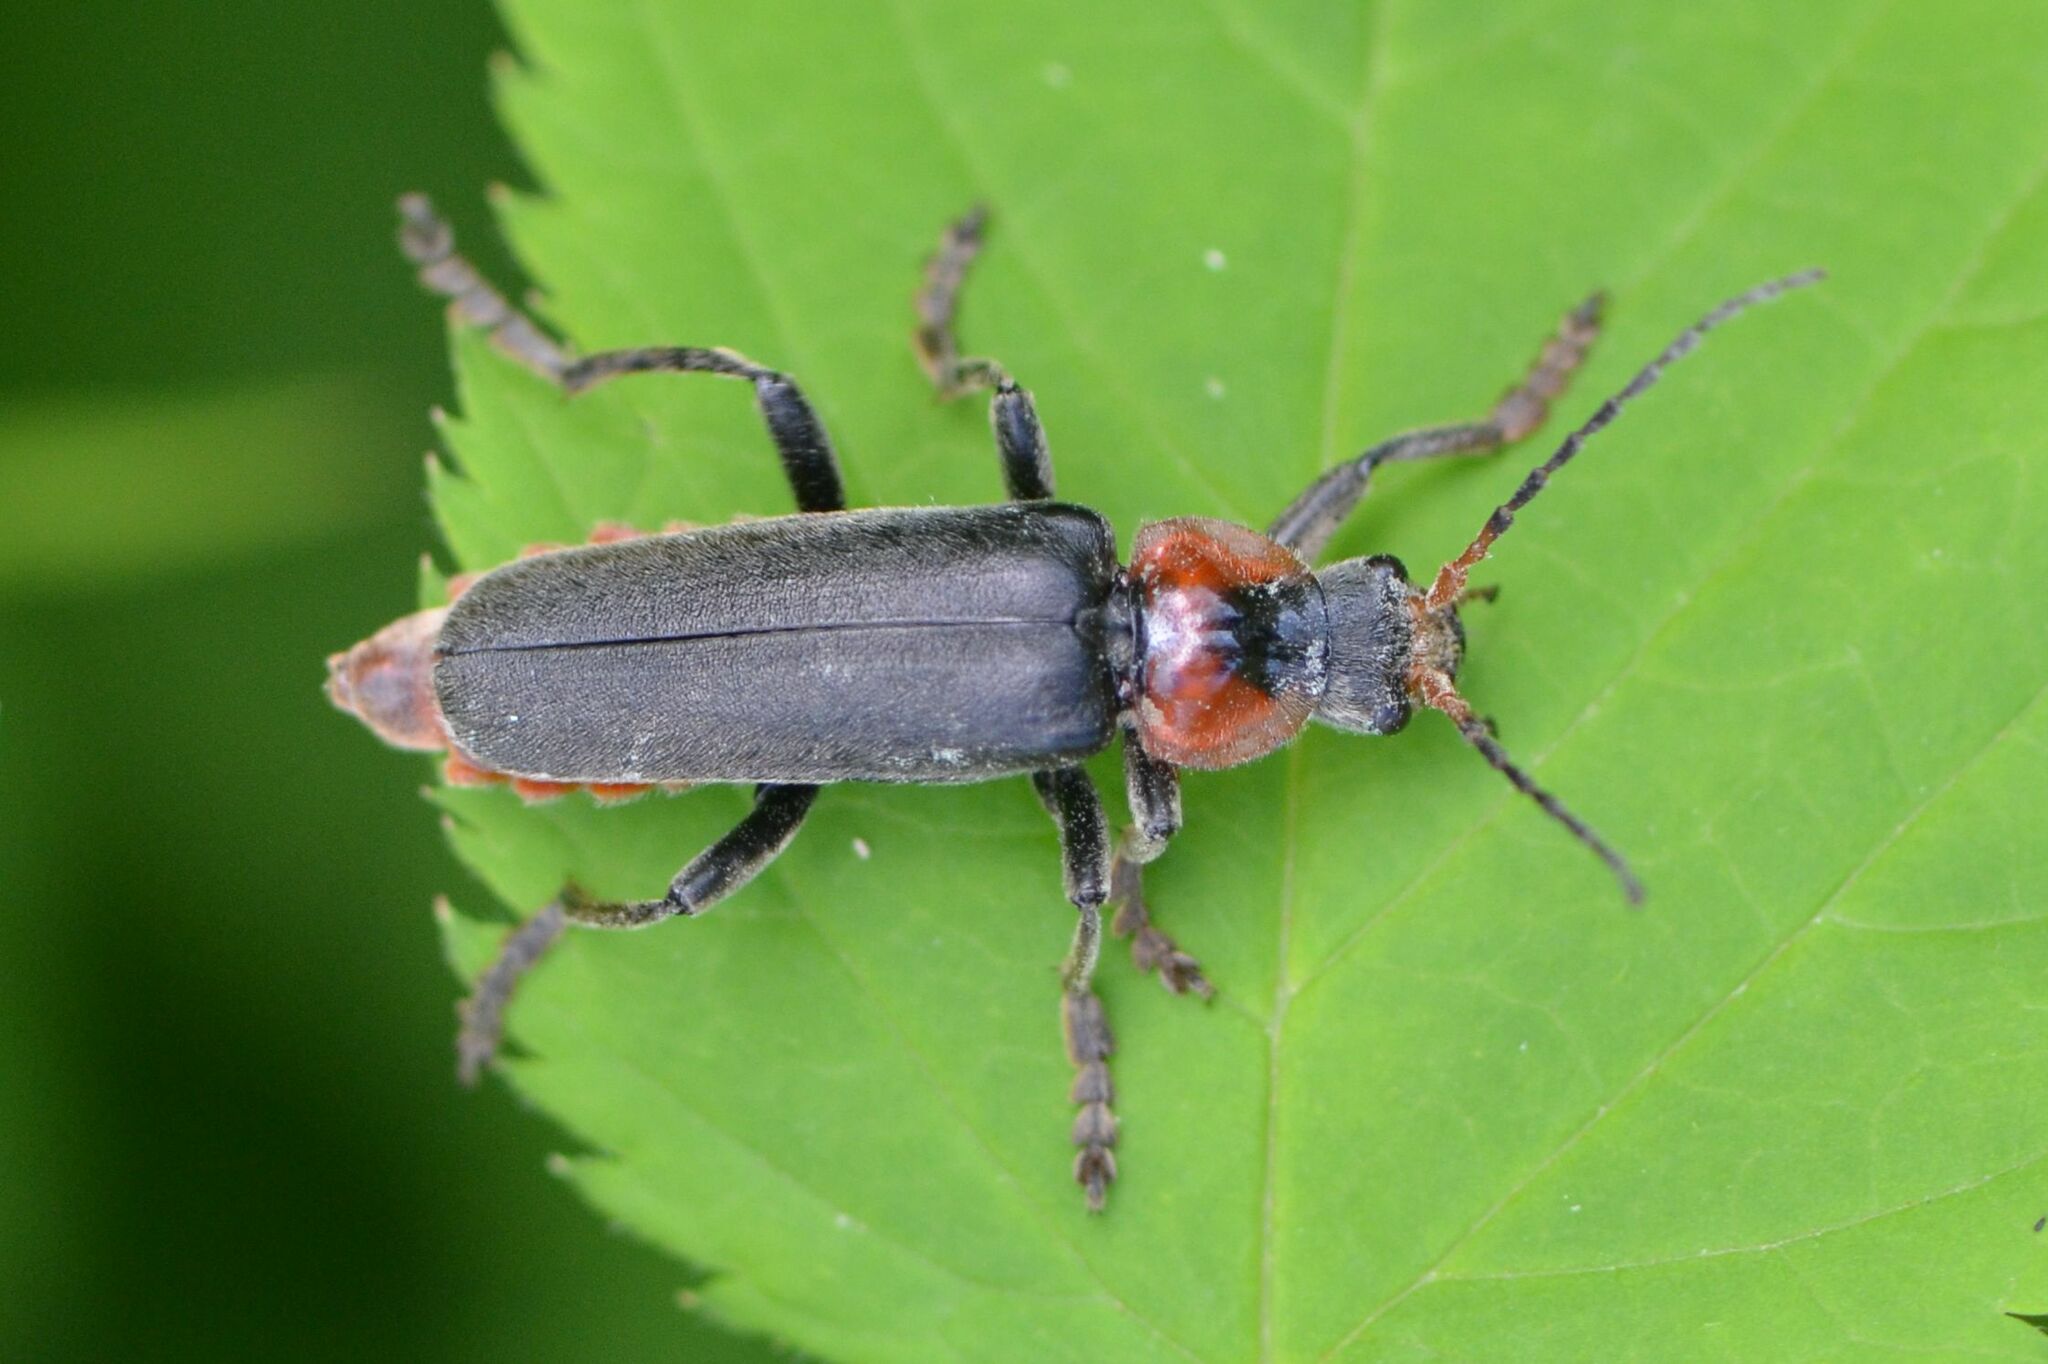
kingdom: Animalia
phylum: Arthropoda
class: Insecta
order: Coleoptera
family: Cantharidae
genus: Cantharis
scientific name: Cantharis fusca
